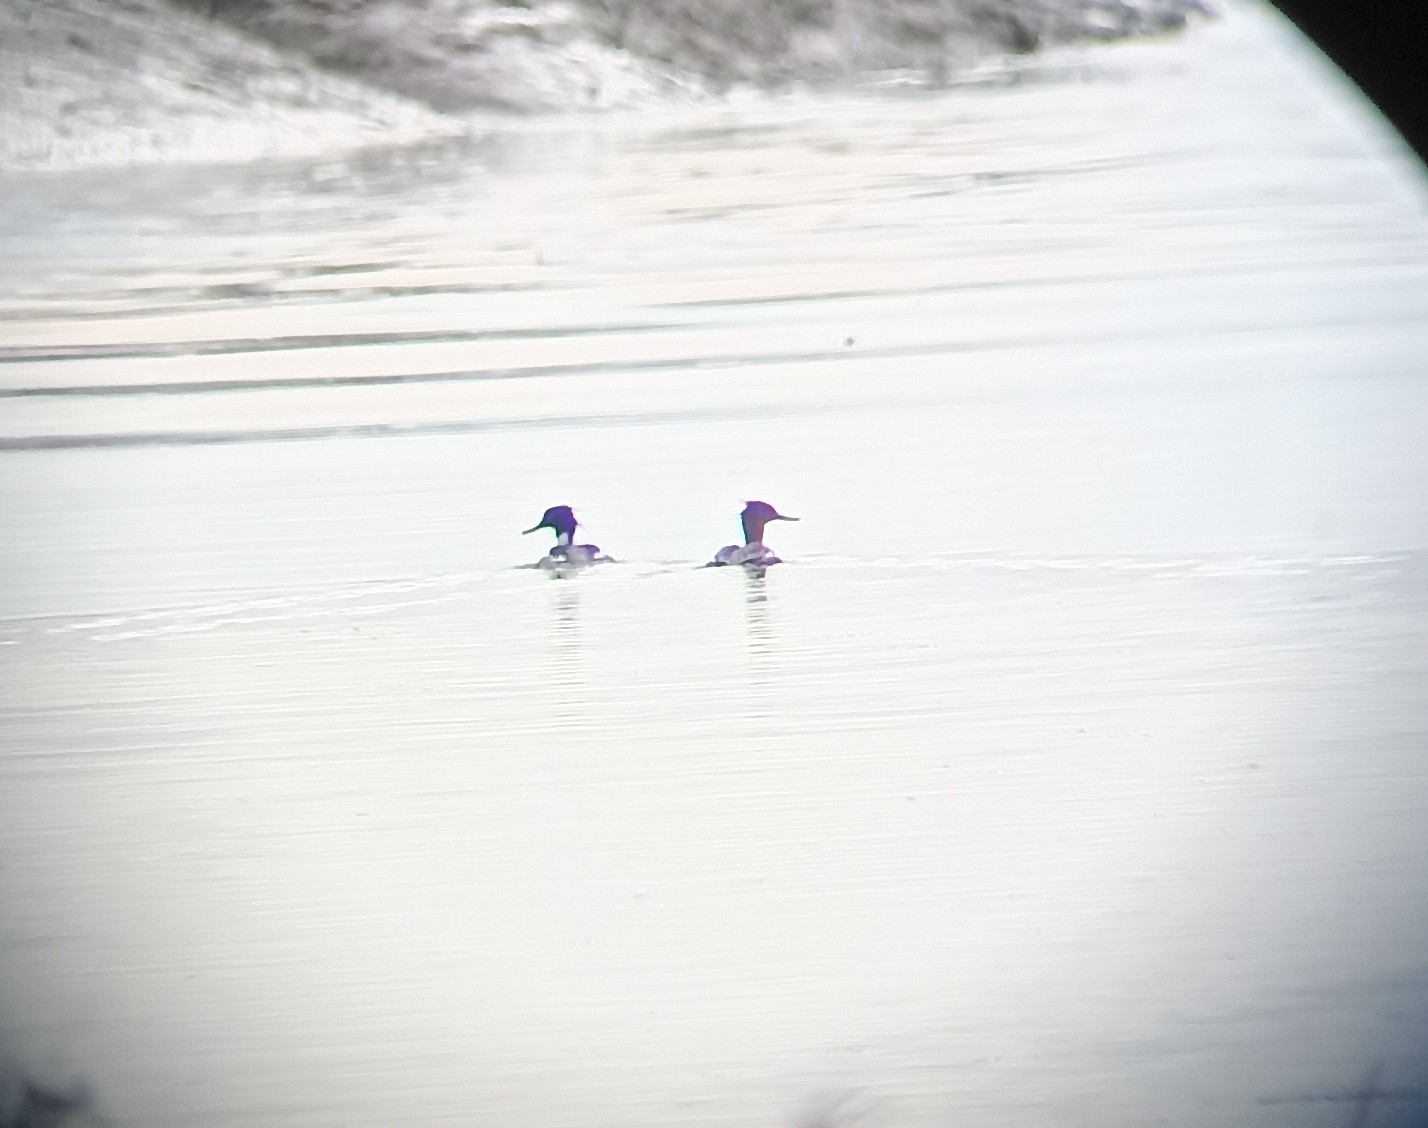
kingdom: Animalia
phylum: Chordata
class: Aves
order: Anseriformes
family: Anatidae
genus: Mergus
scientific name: Mergus serrator
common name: Red-breasted merganser
